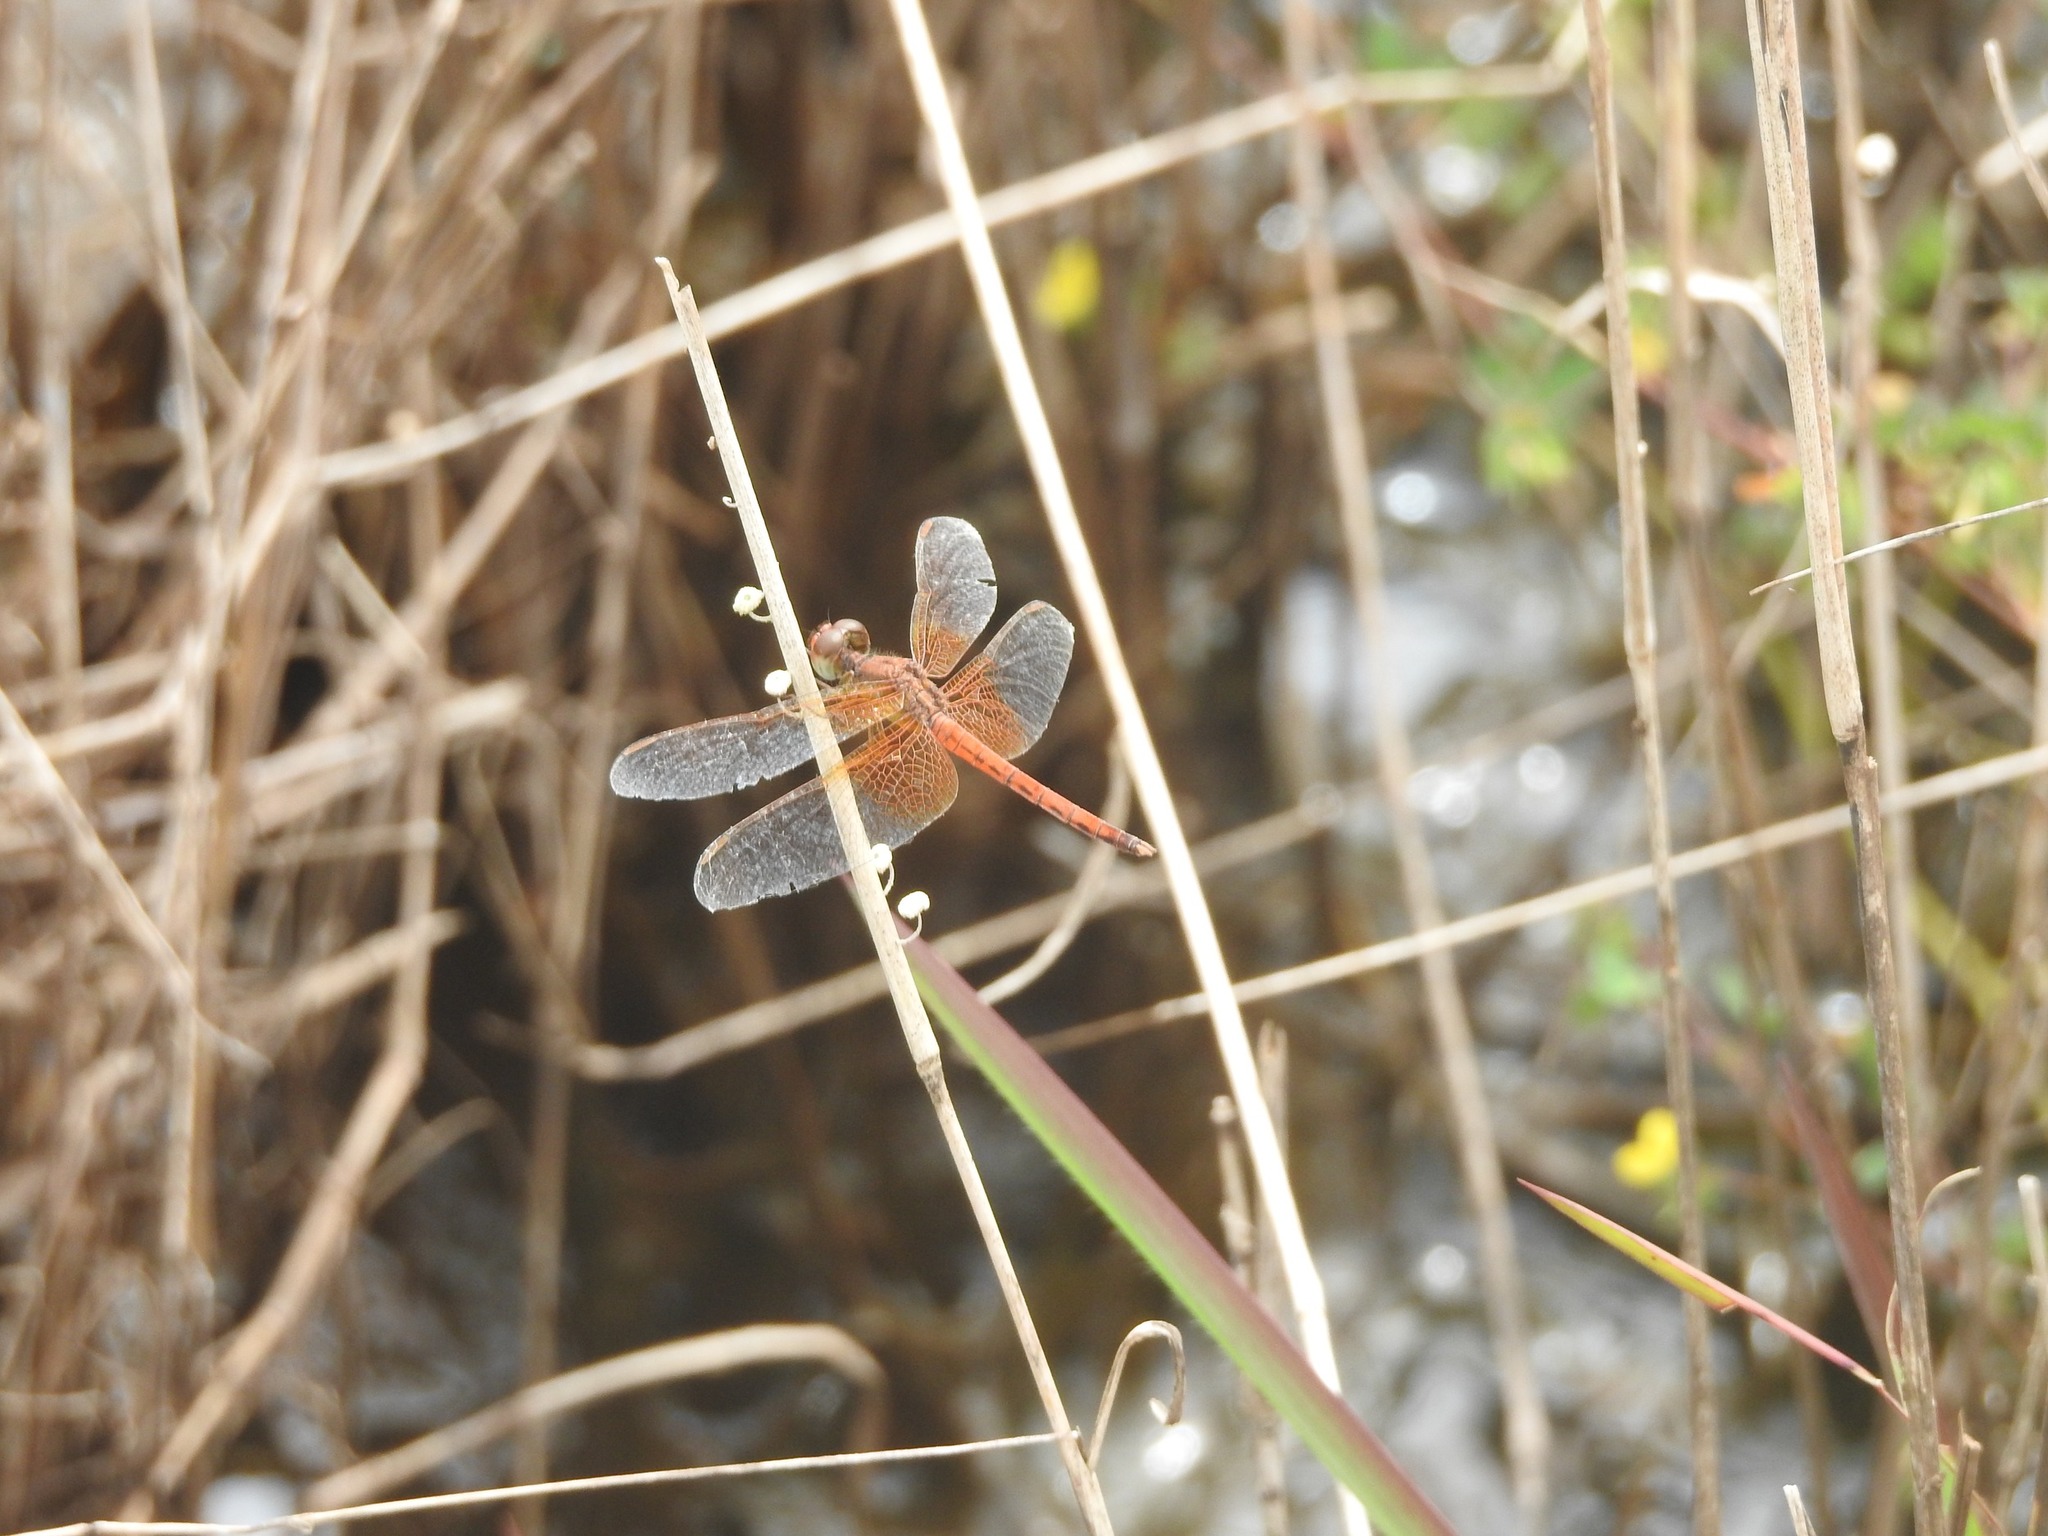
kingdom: Animalia
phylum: Arthropoda
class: Insecta
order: Odonata
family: Libellulidae
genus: Neurothemis
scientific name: Neurothemis intermedia
